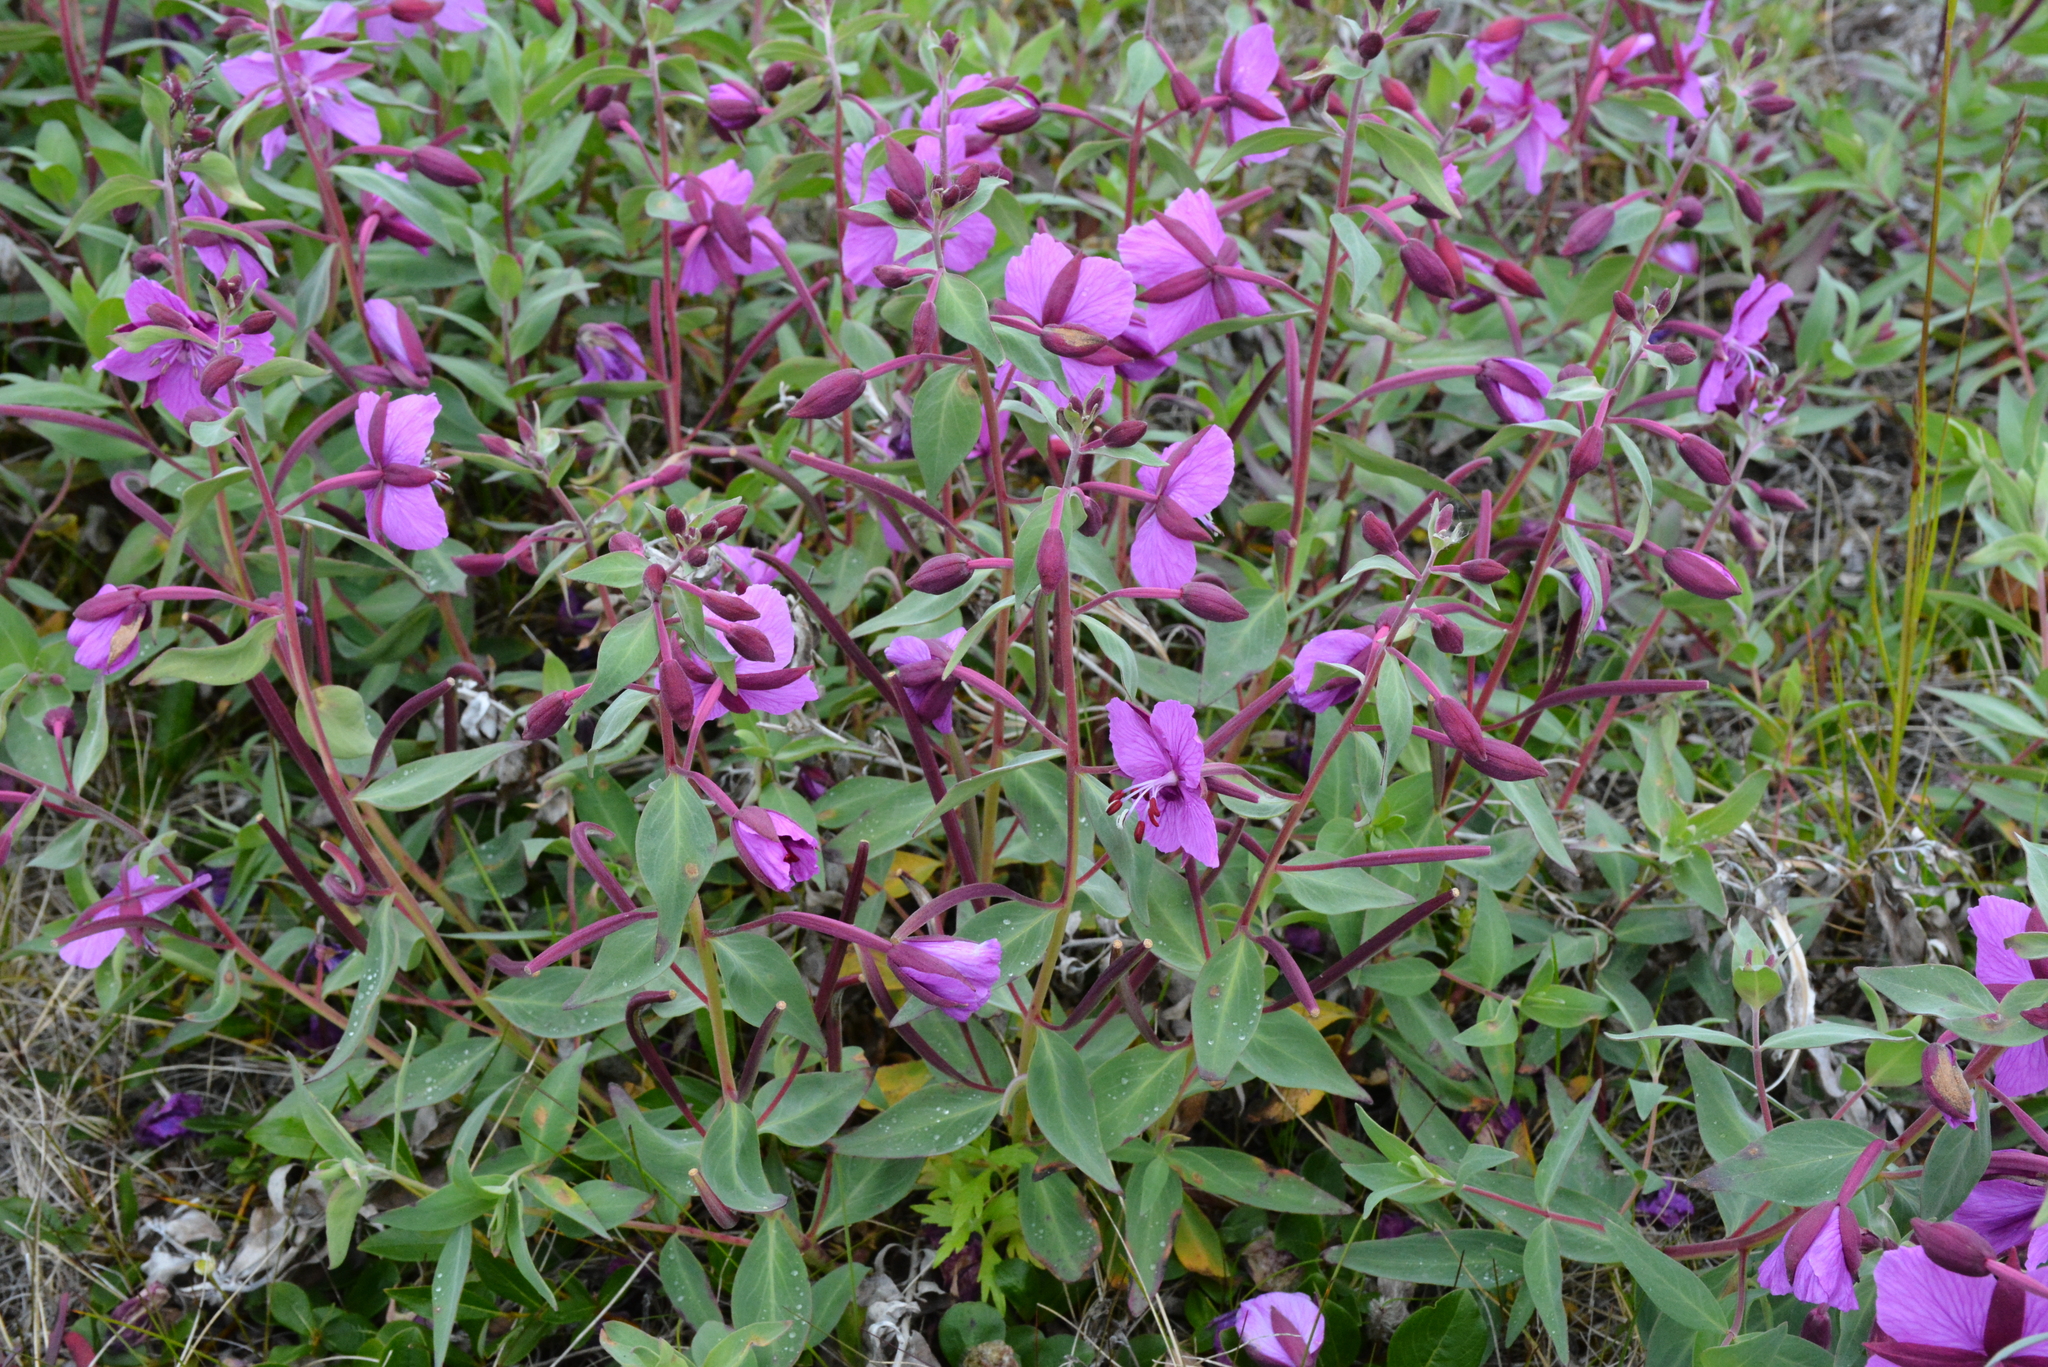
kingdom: Plantae
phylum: Tracheophyta
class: Magnoliopsida
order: Myrtales
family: Onagraceae
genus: Chamaenerion
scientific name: Chamaenerion latifolium
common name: Dwarf fireweed
